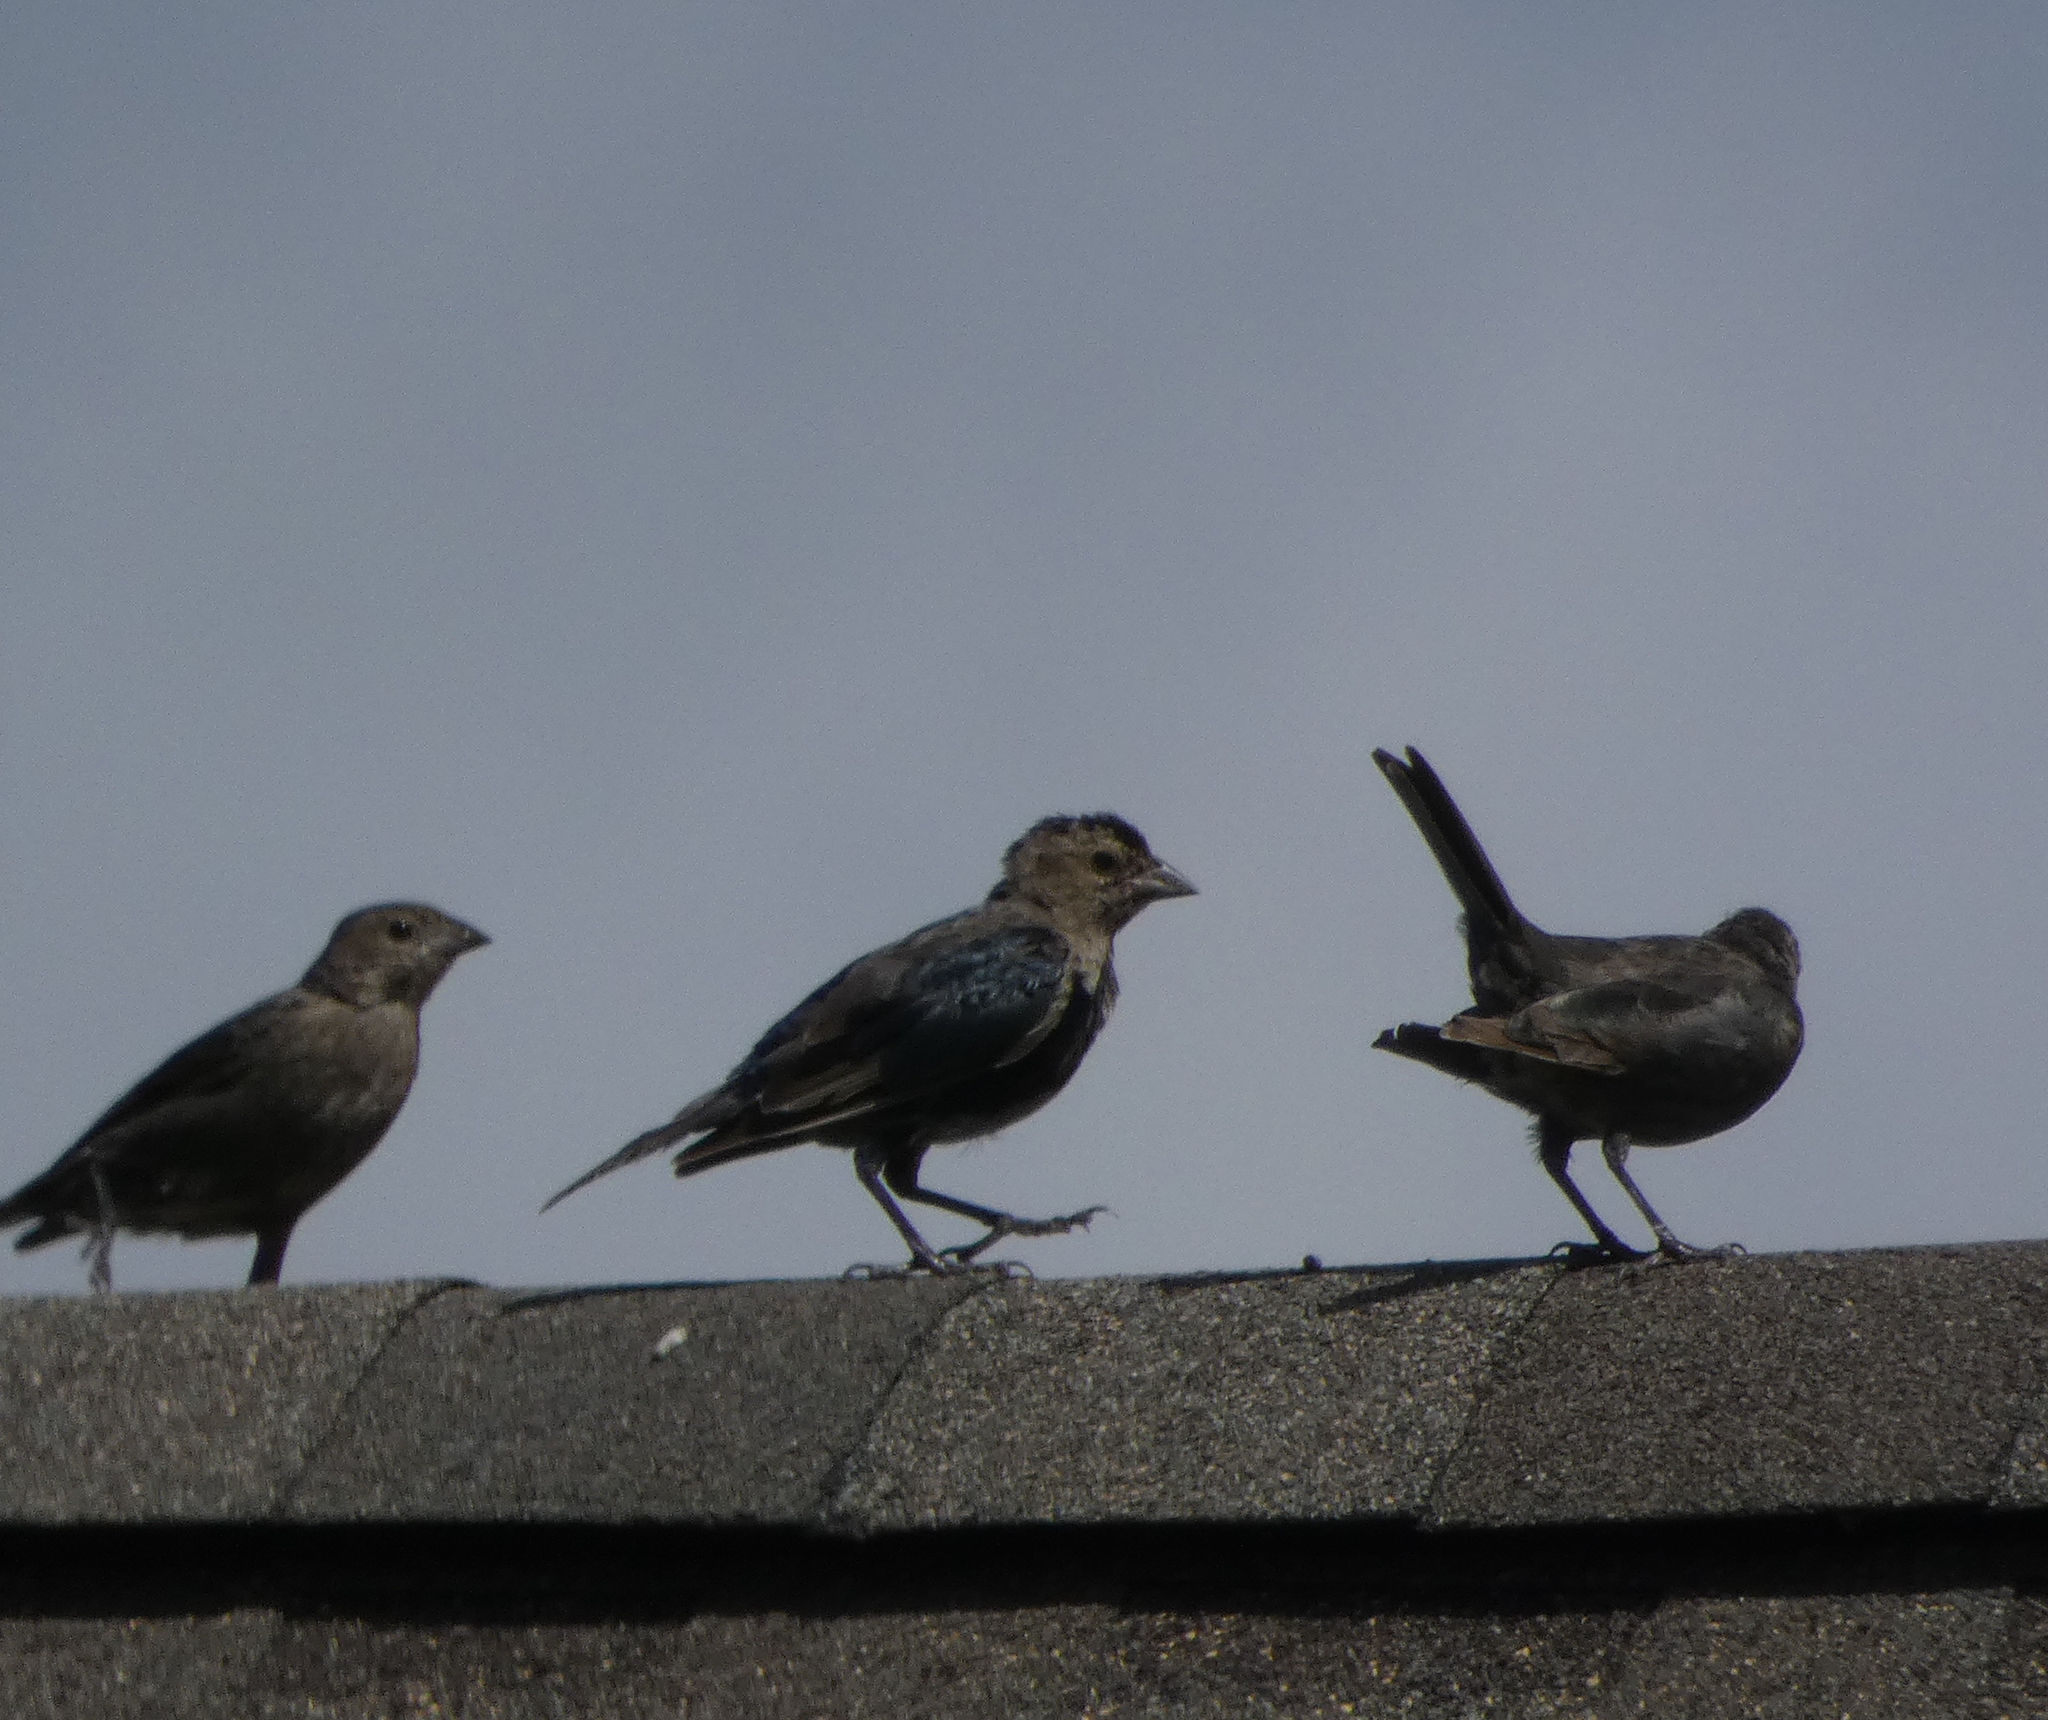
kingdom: Animalia
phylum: Chordata
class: Aves
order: Passeriformes
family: Icteridae
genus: Molothrus
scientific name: Molothrus ater
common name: Brown-headed cowbird
